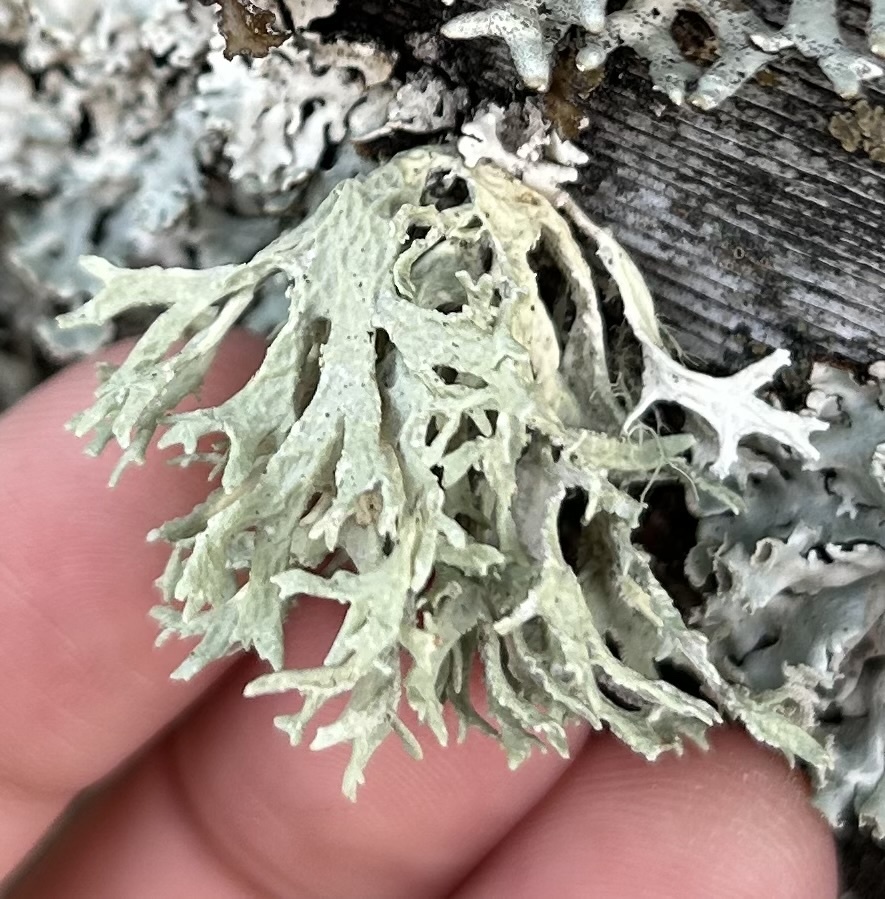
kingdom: Fungi
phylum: Ascomycota
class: Lecanoromycetes
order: Lecanorales
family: Parmeliaceae
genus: Evernia
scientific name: Evernia prunastri
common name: Oak moss
